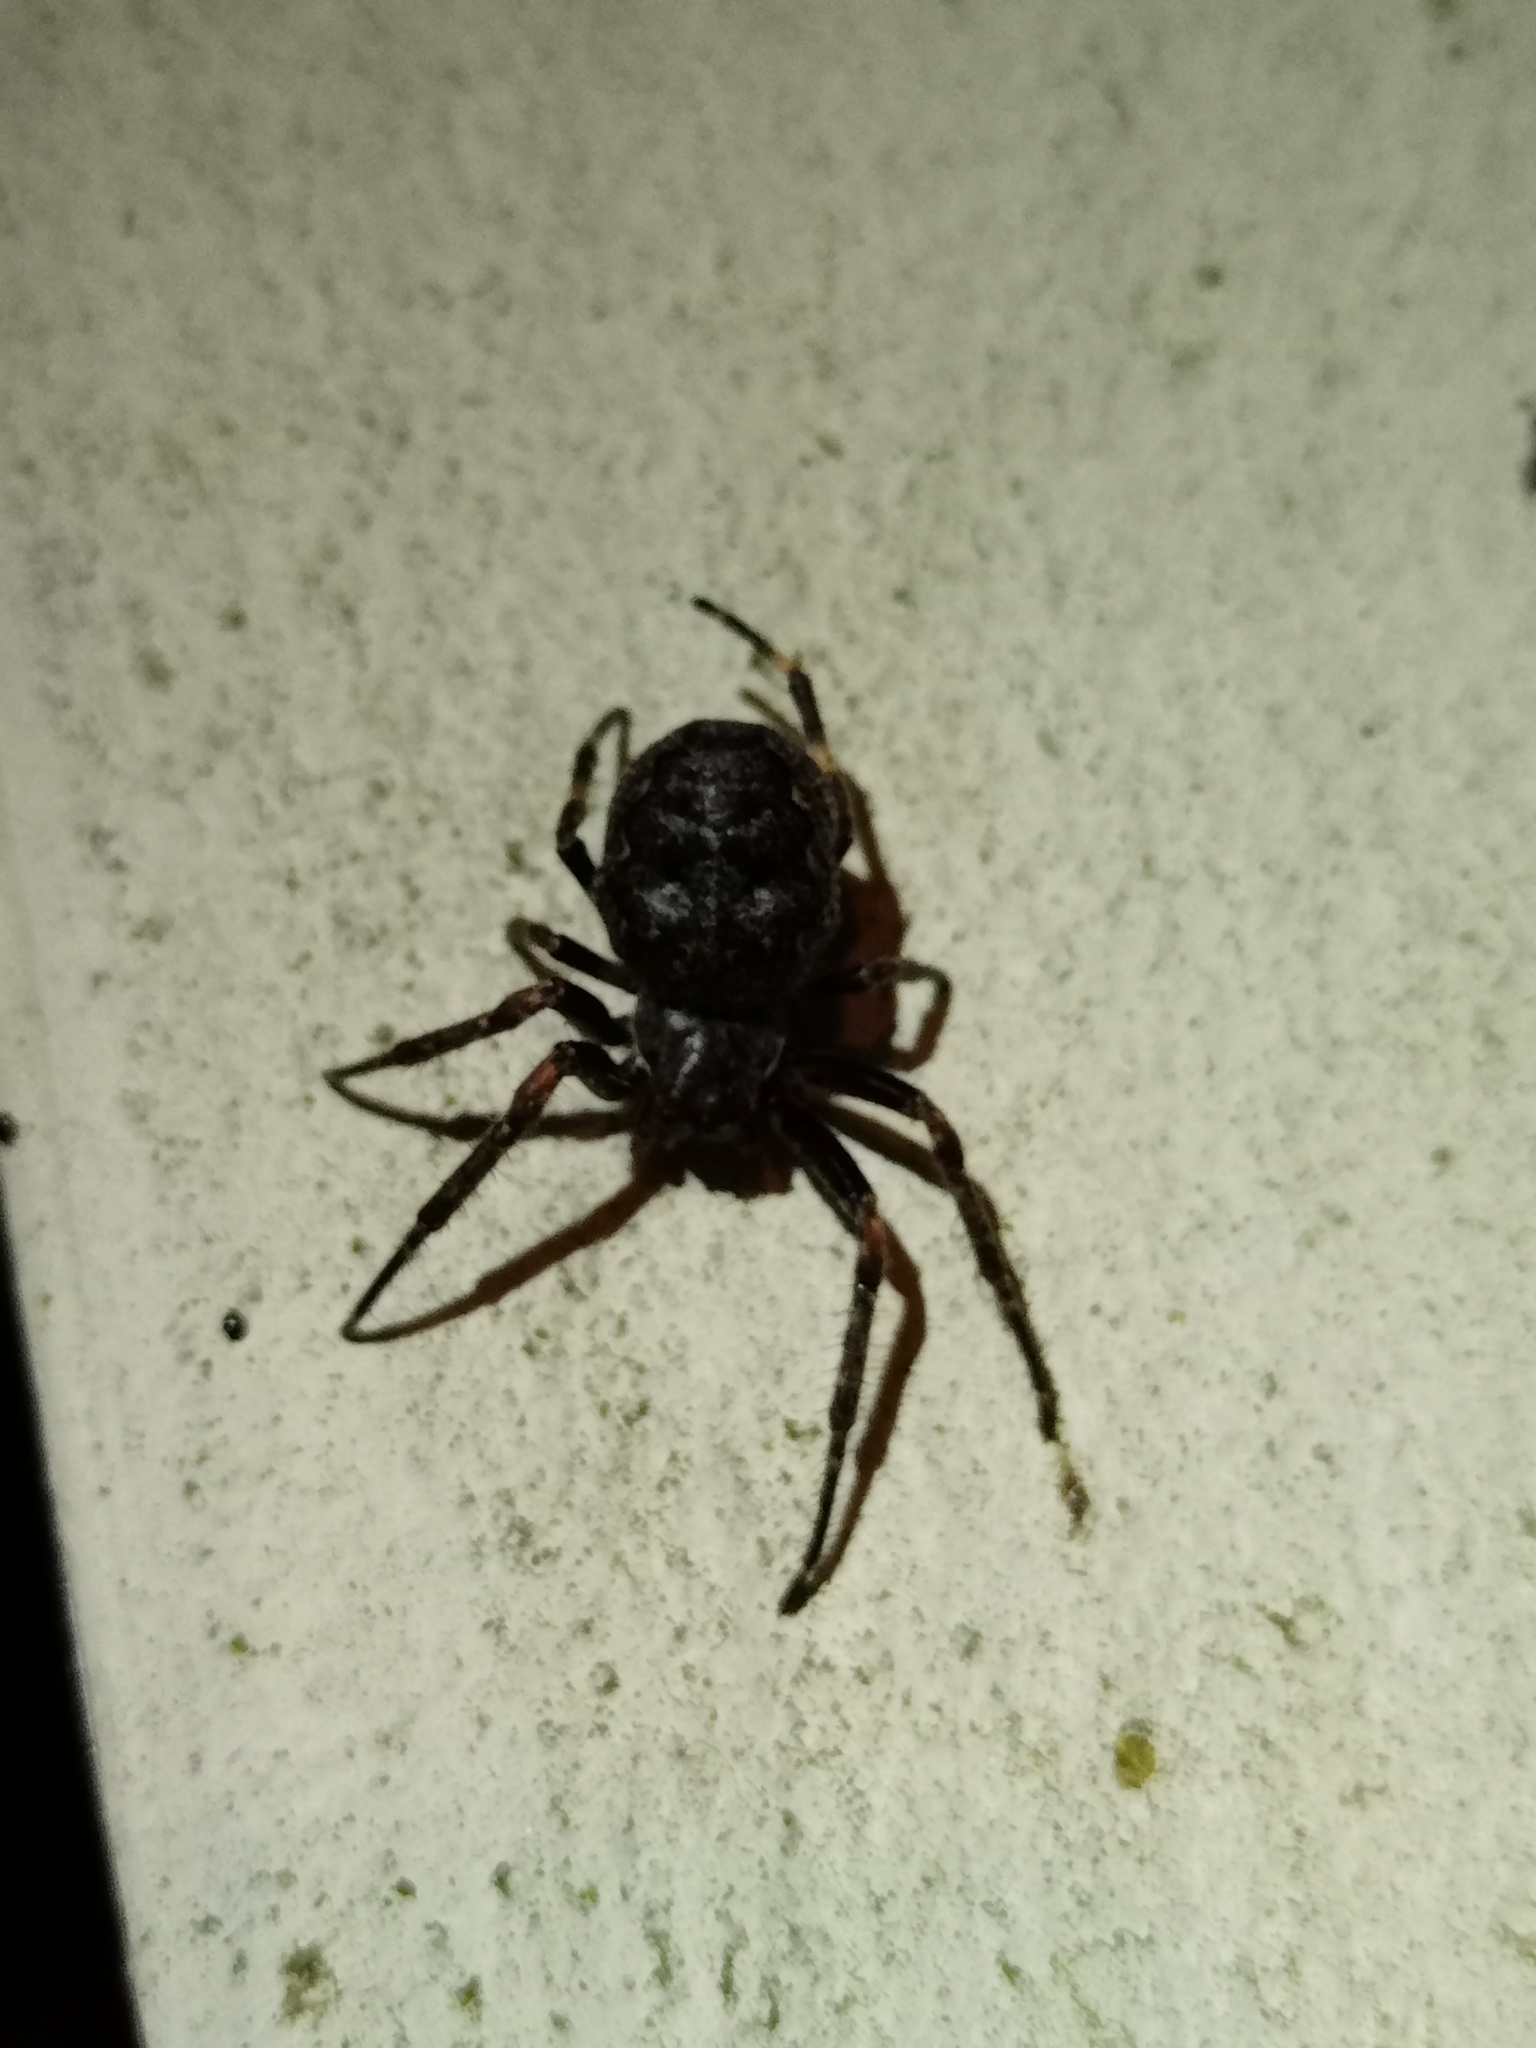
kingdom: Animalia
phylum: Arthropoda
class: Arachnida
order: Araneae
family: Araneidae
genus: Nuctenea
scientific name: Nuctenea umbratica
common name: Toad spider
